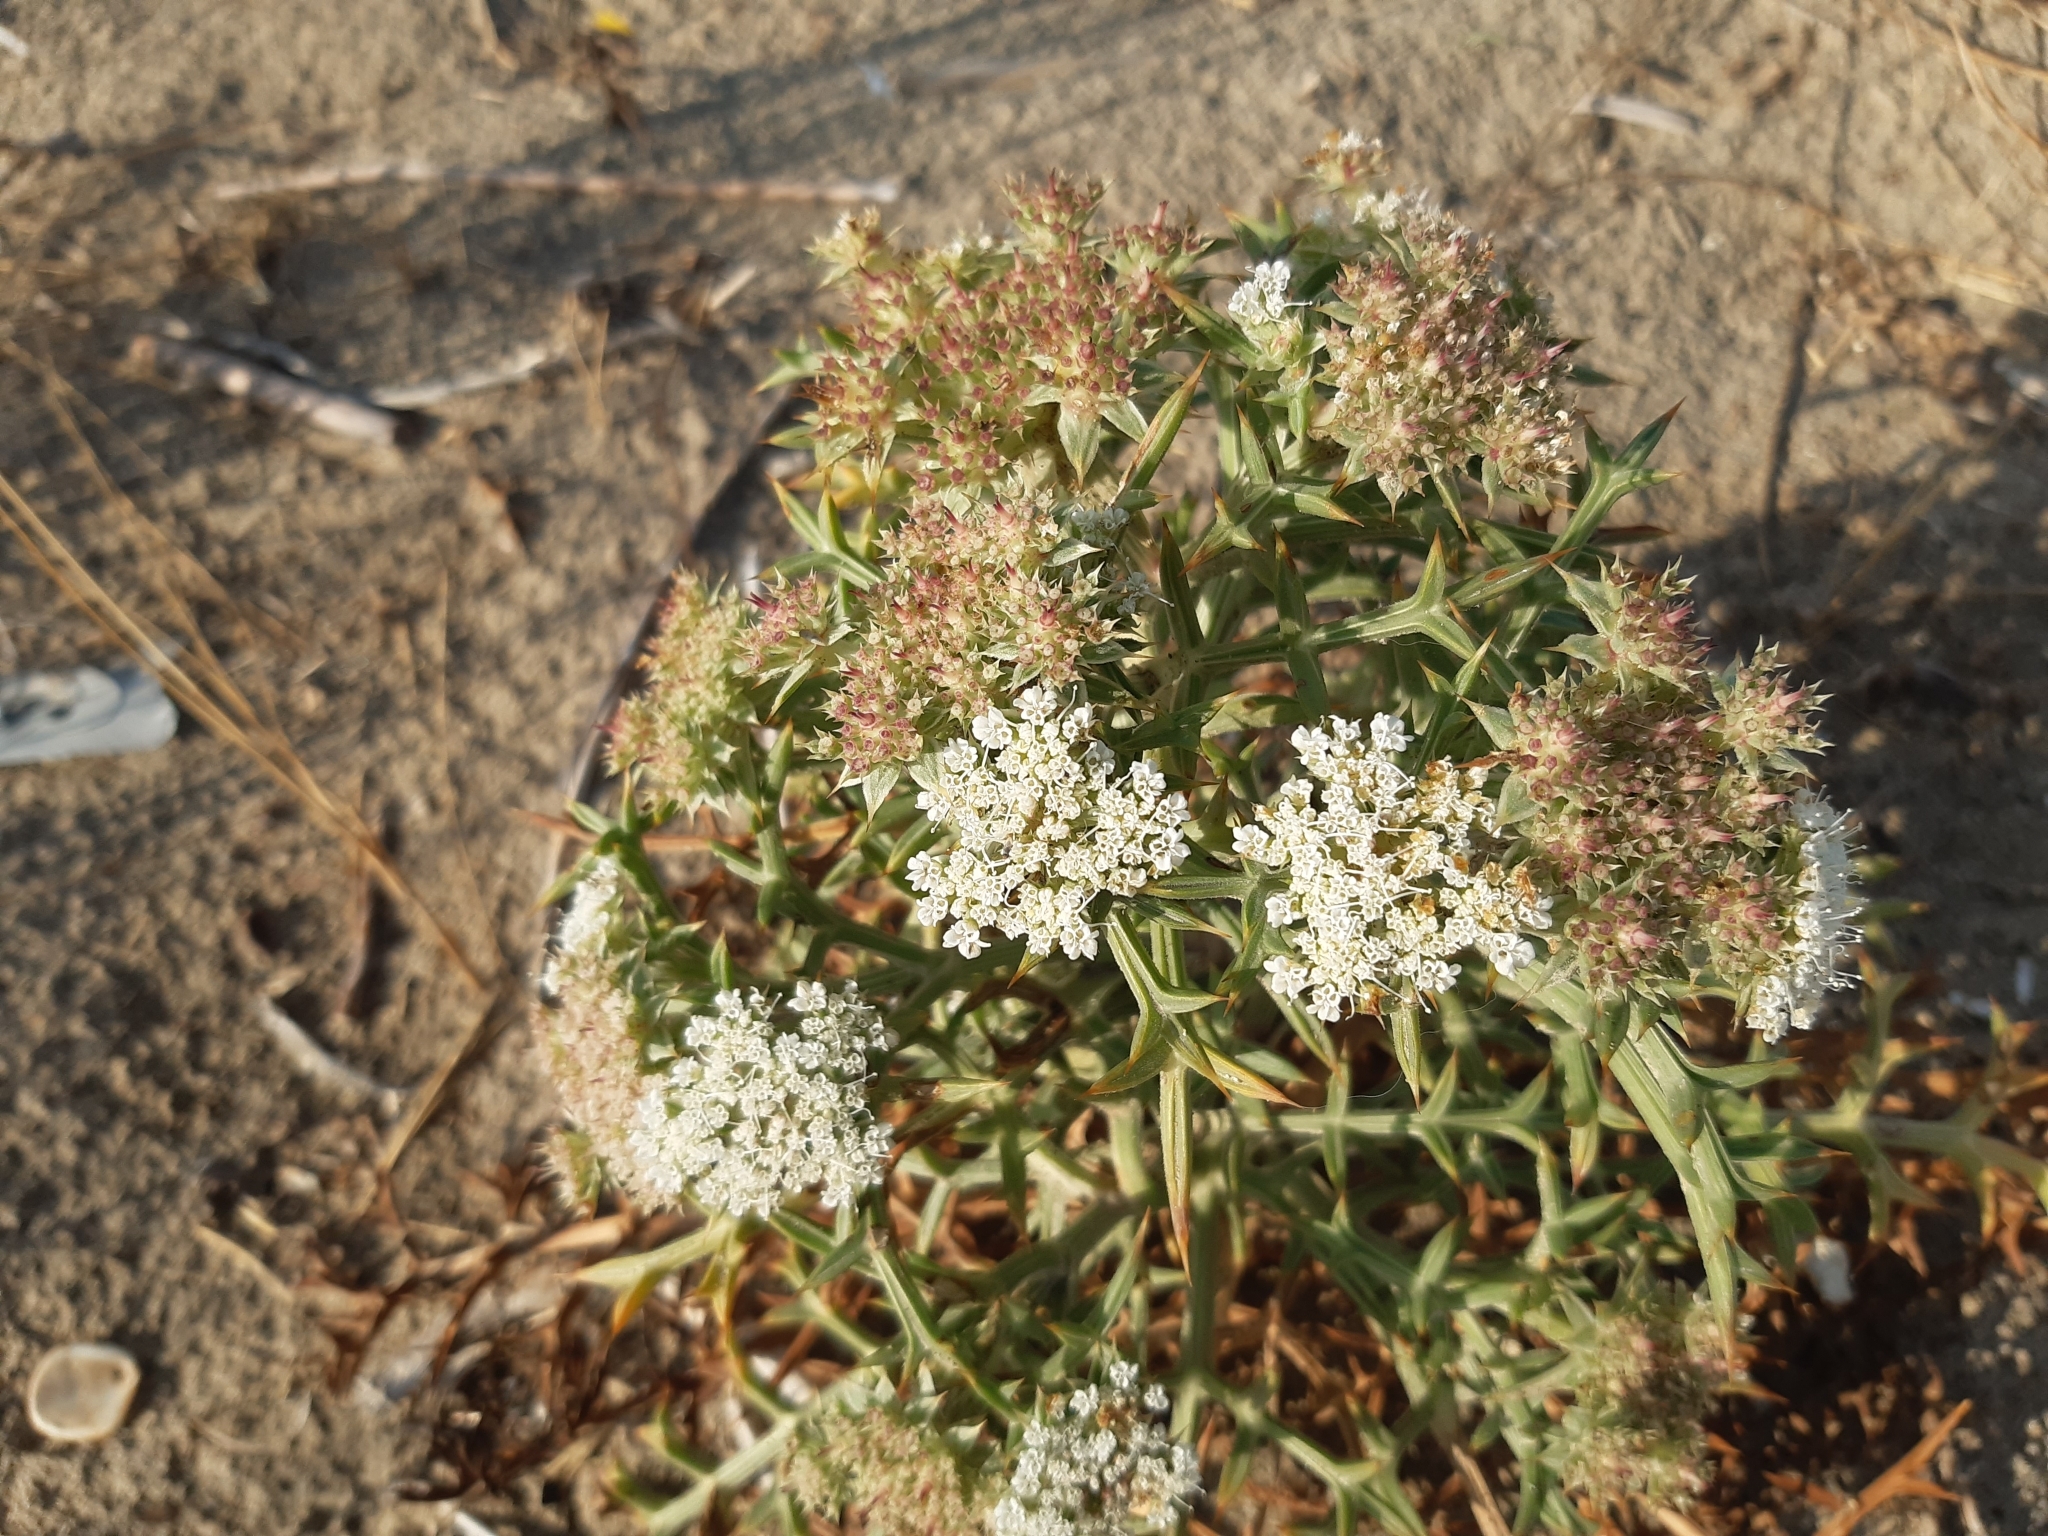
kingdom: Plantae
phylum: Tracheophyta
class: Magnoliopsida
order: Apiales
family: Apiaceae
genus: Echinophora
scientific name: Echinophora spinosa
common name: Prickly samphire
